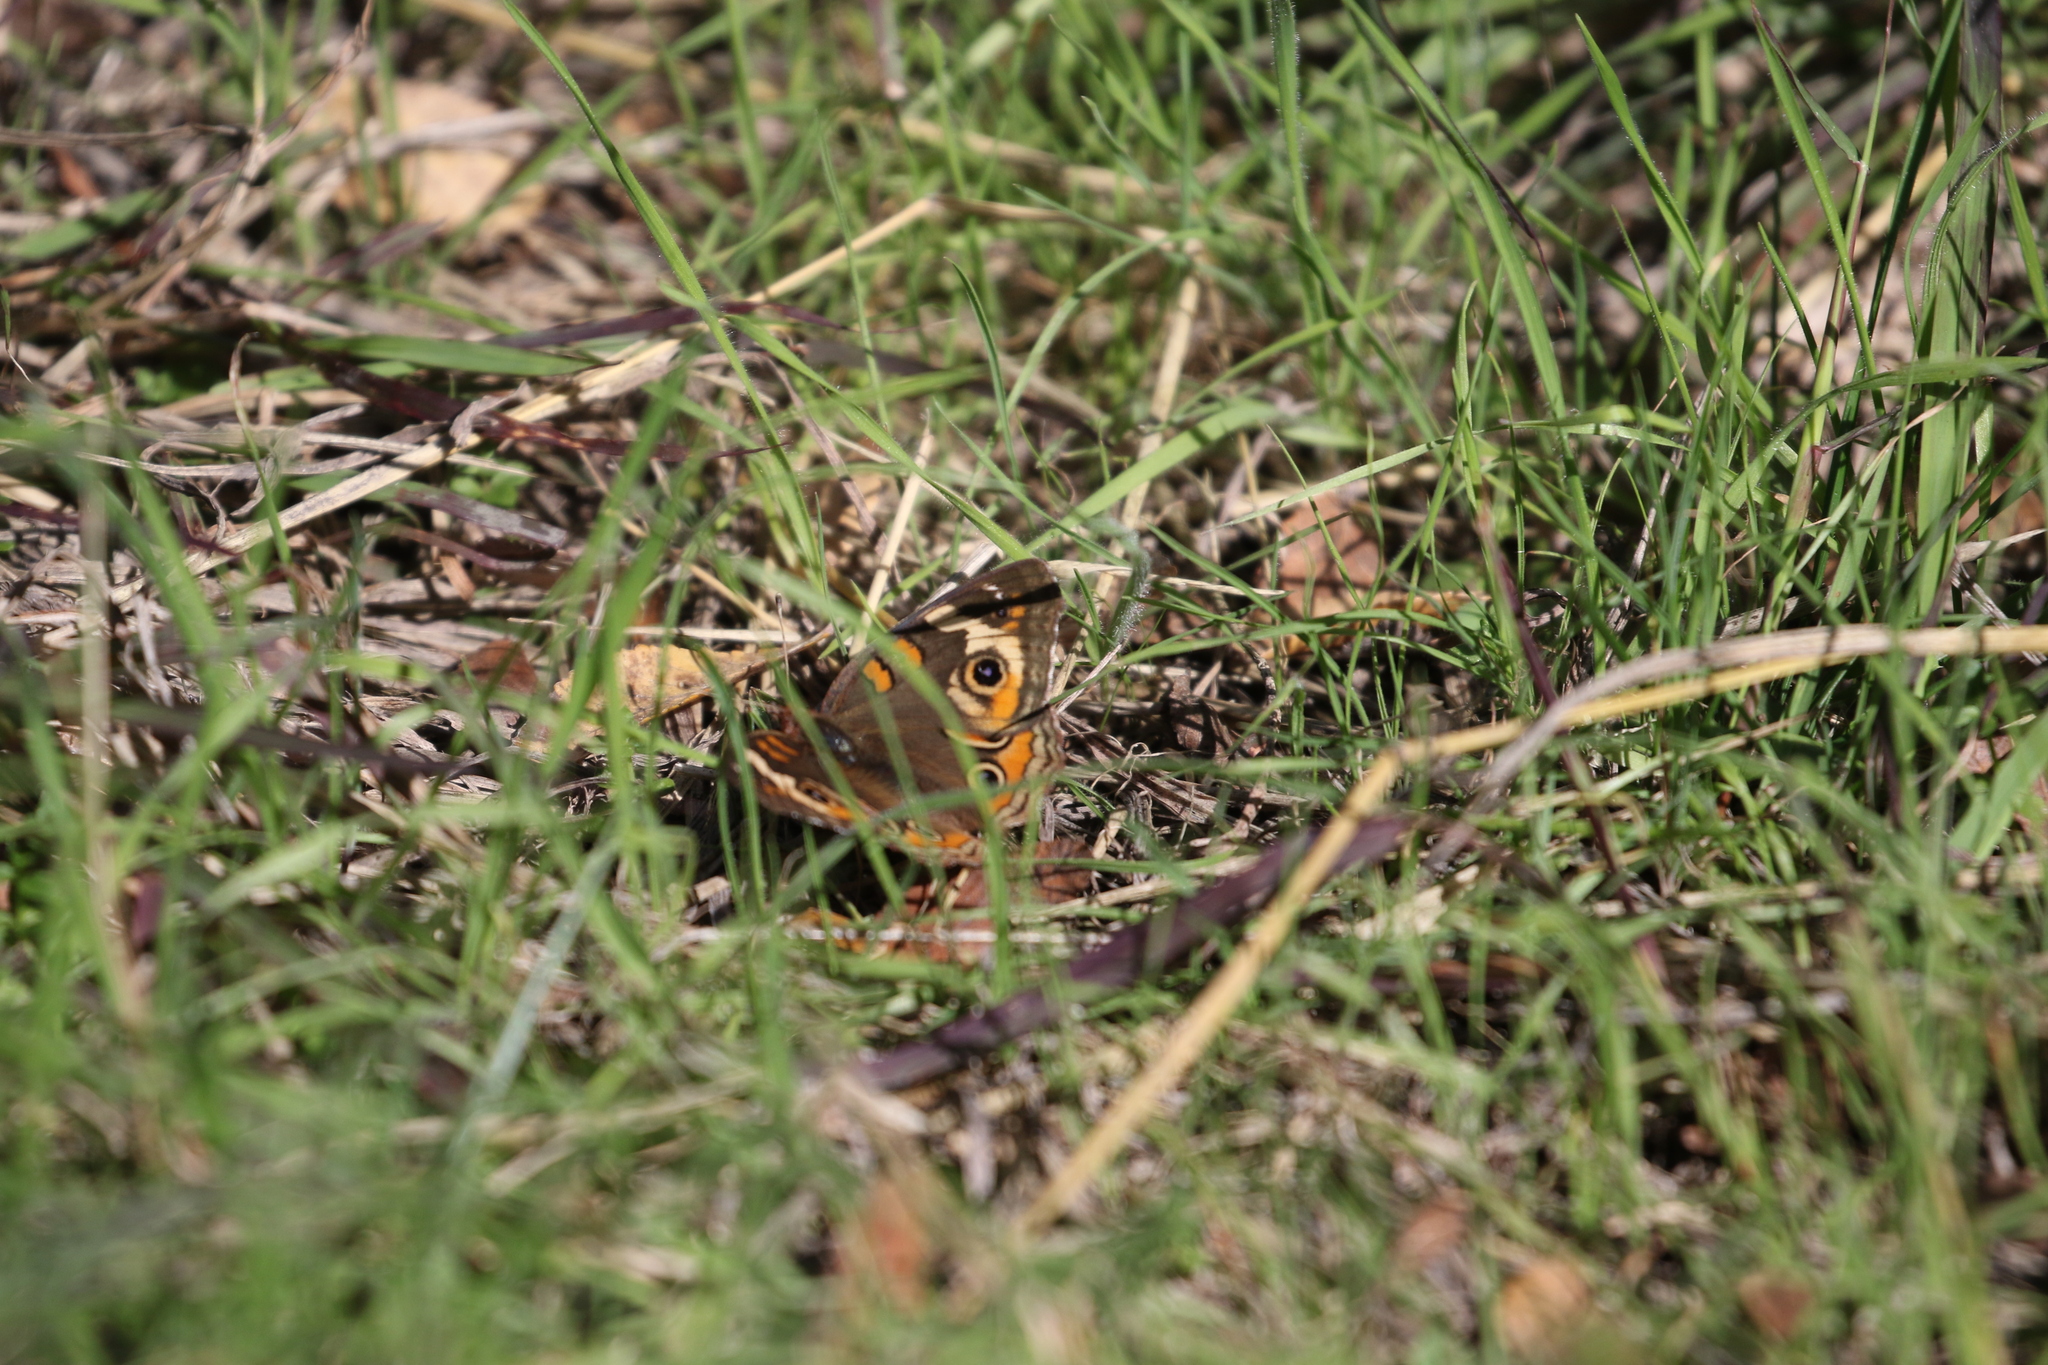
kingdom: Animalia
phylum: Arthropoda
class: Insecta
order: Lepidoptera
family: Nymphalidae
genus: Junonia
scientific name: Junonia coenia
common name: Common buckeye
